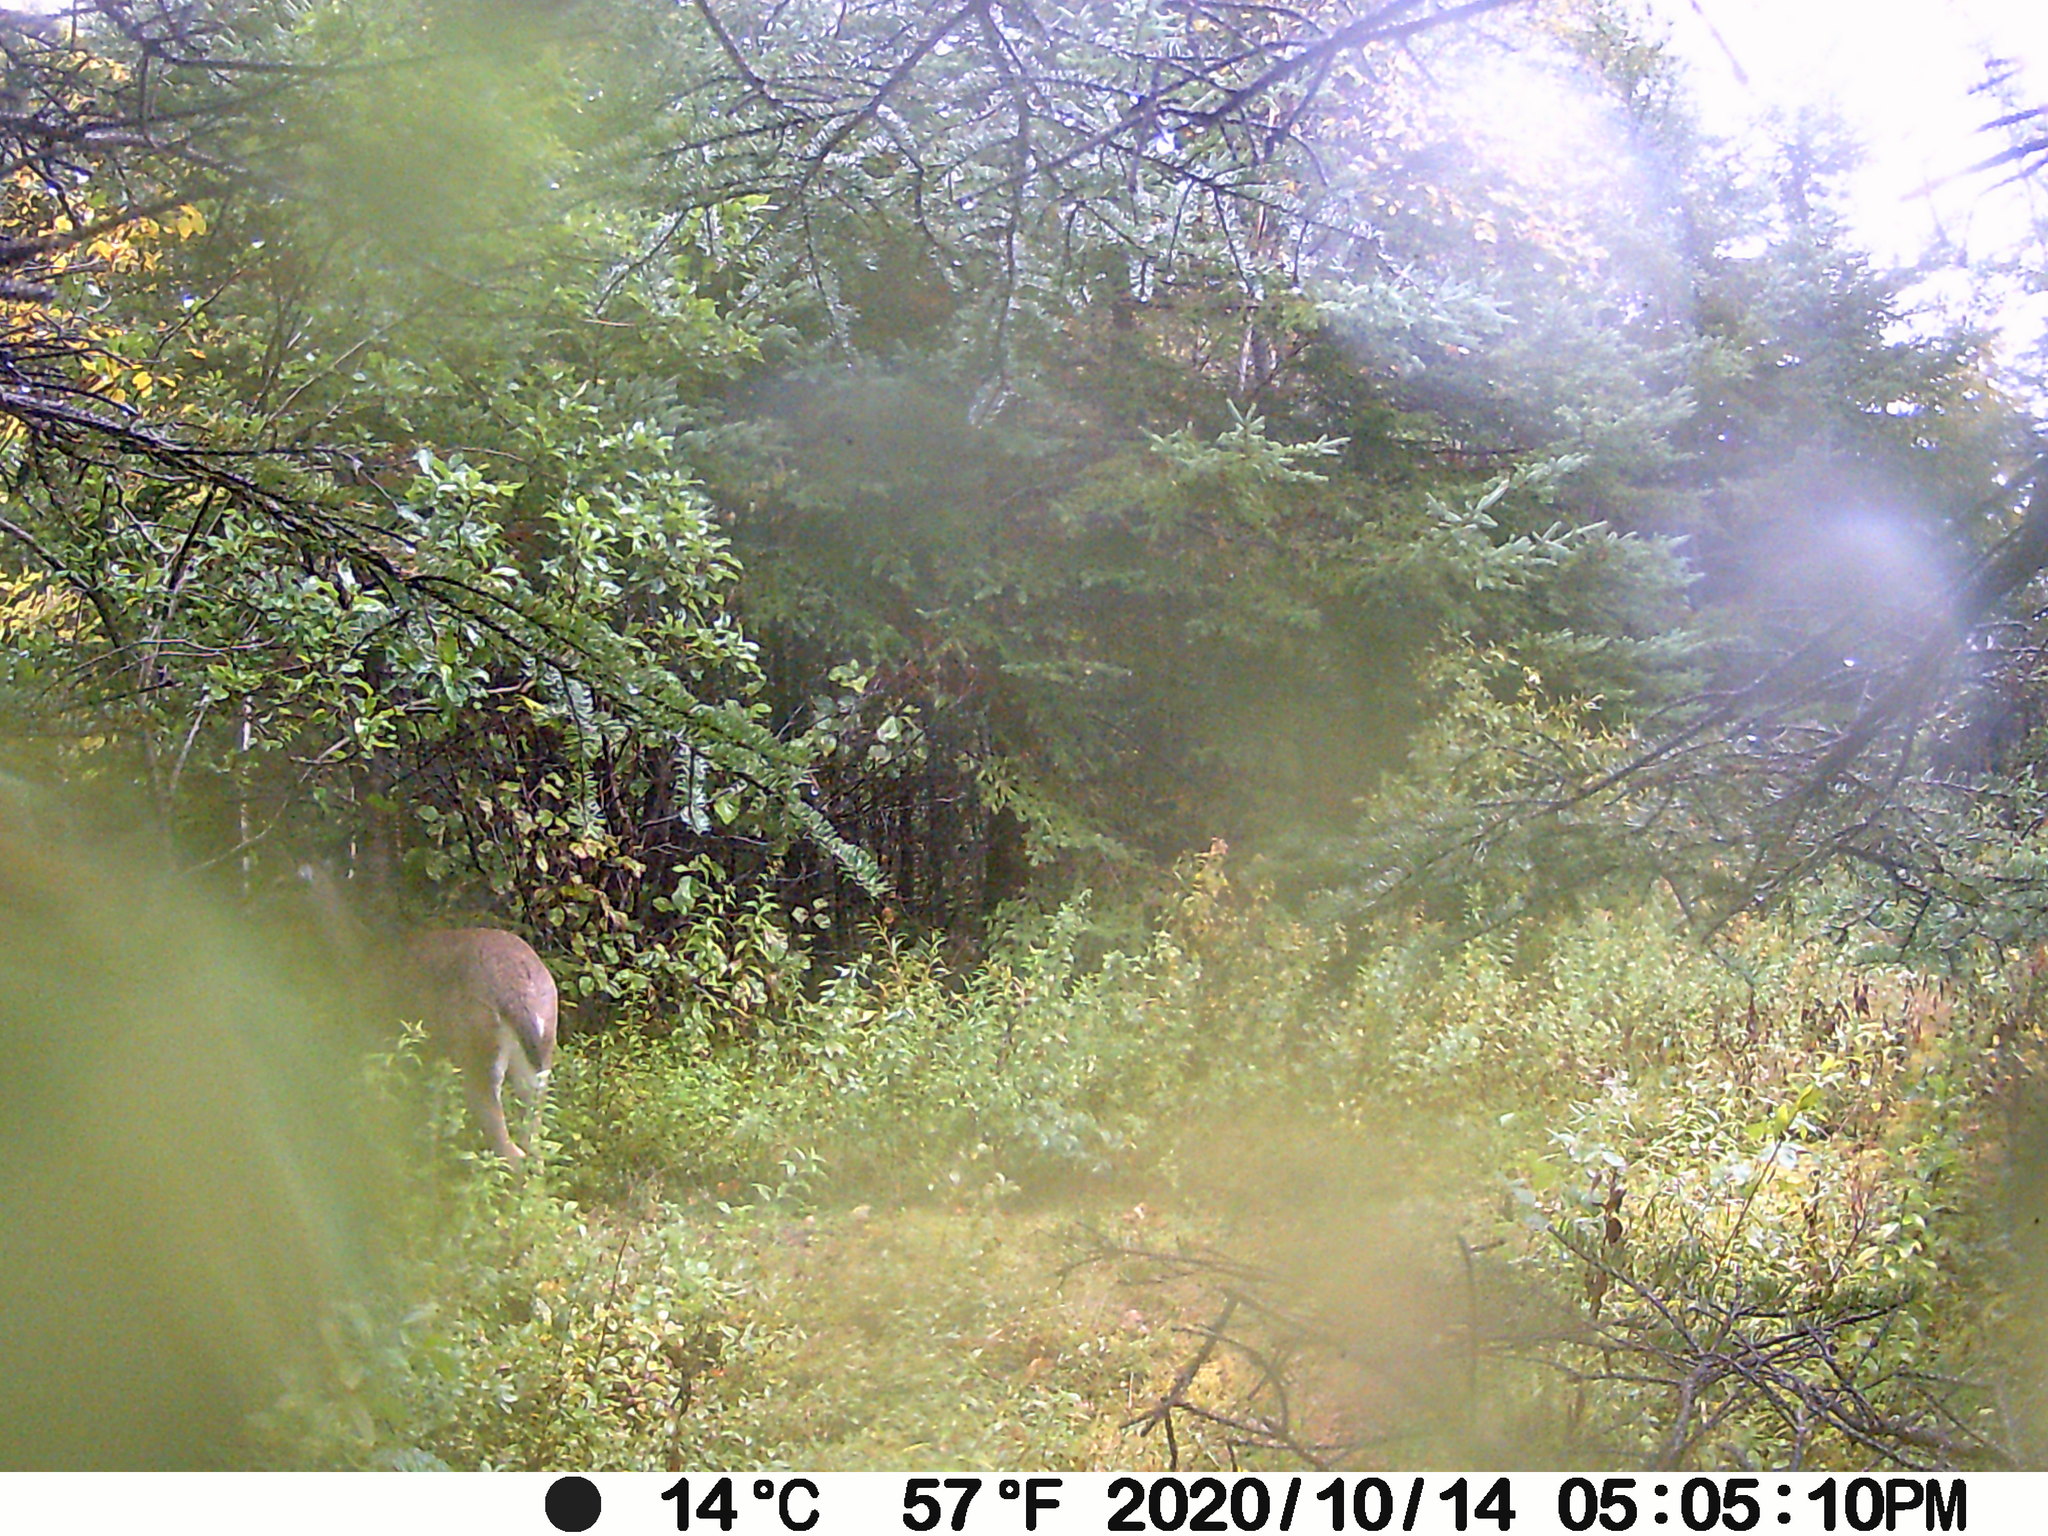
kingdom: Animalia
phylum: Chordata
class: Mammalia
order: Artiodactyla
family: Cervidae
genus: Odocoileus
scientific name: Odocoileus virginianus
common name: White-tailed deer
